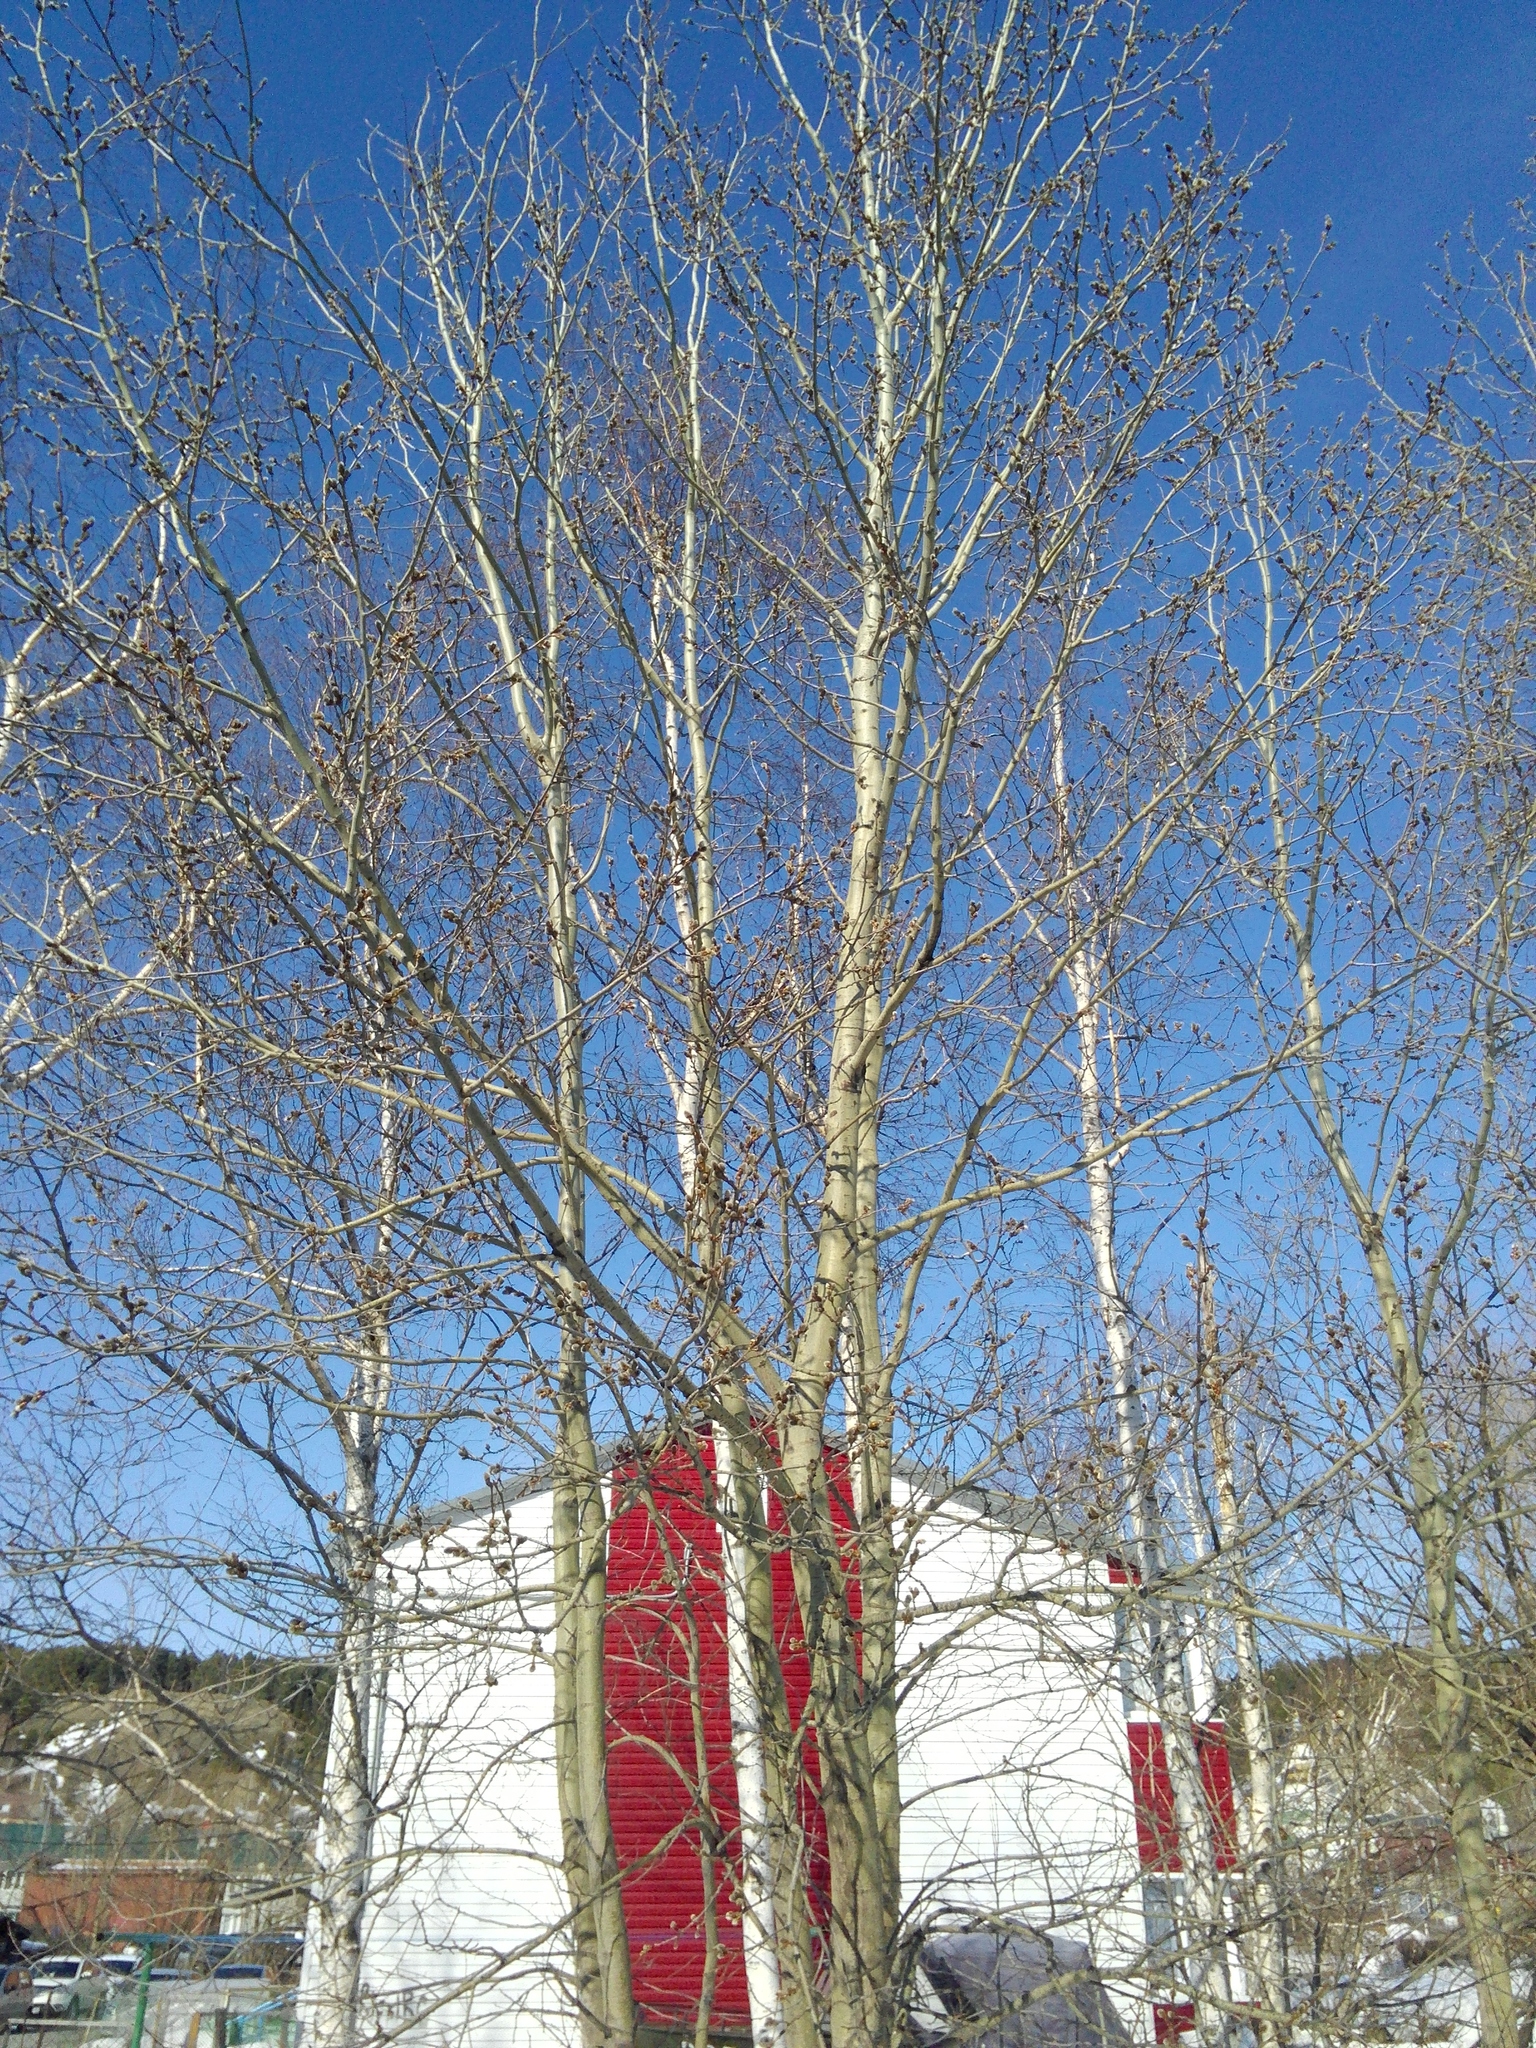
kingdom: Plantae
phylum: Tracheophyta
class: Magnoliopsida
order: Malpighiales
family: Salicaceae
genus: Populus
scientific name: Populus tremula
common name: European aspen
